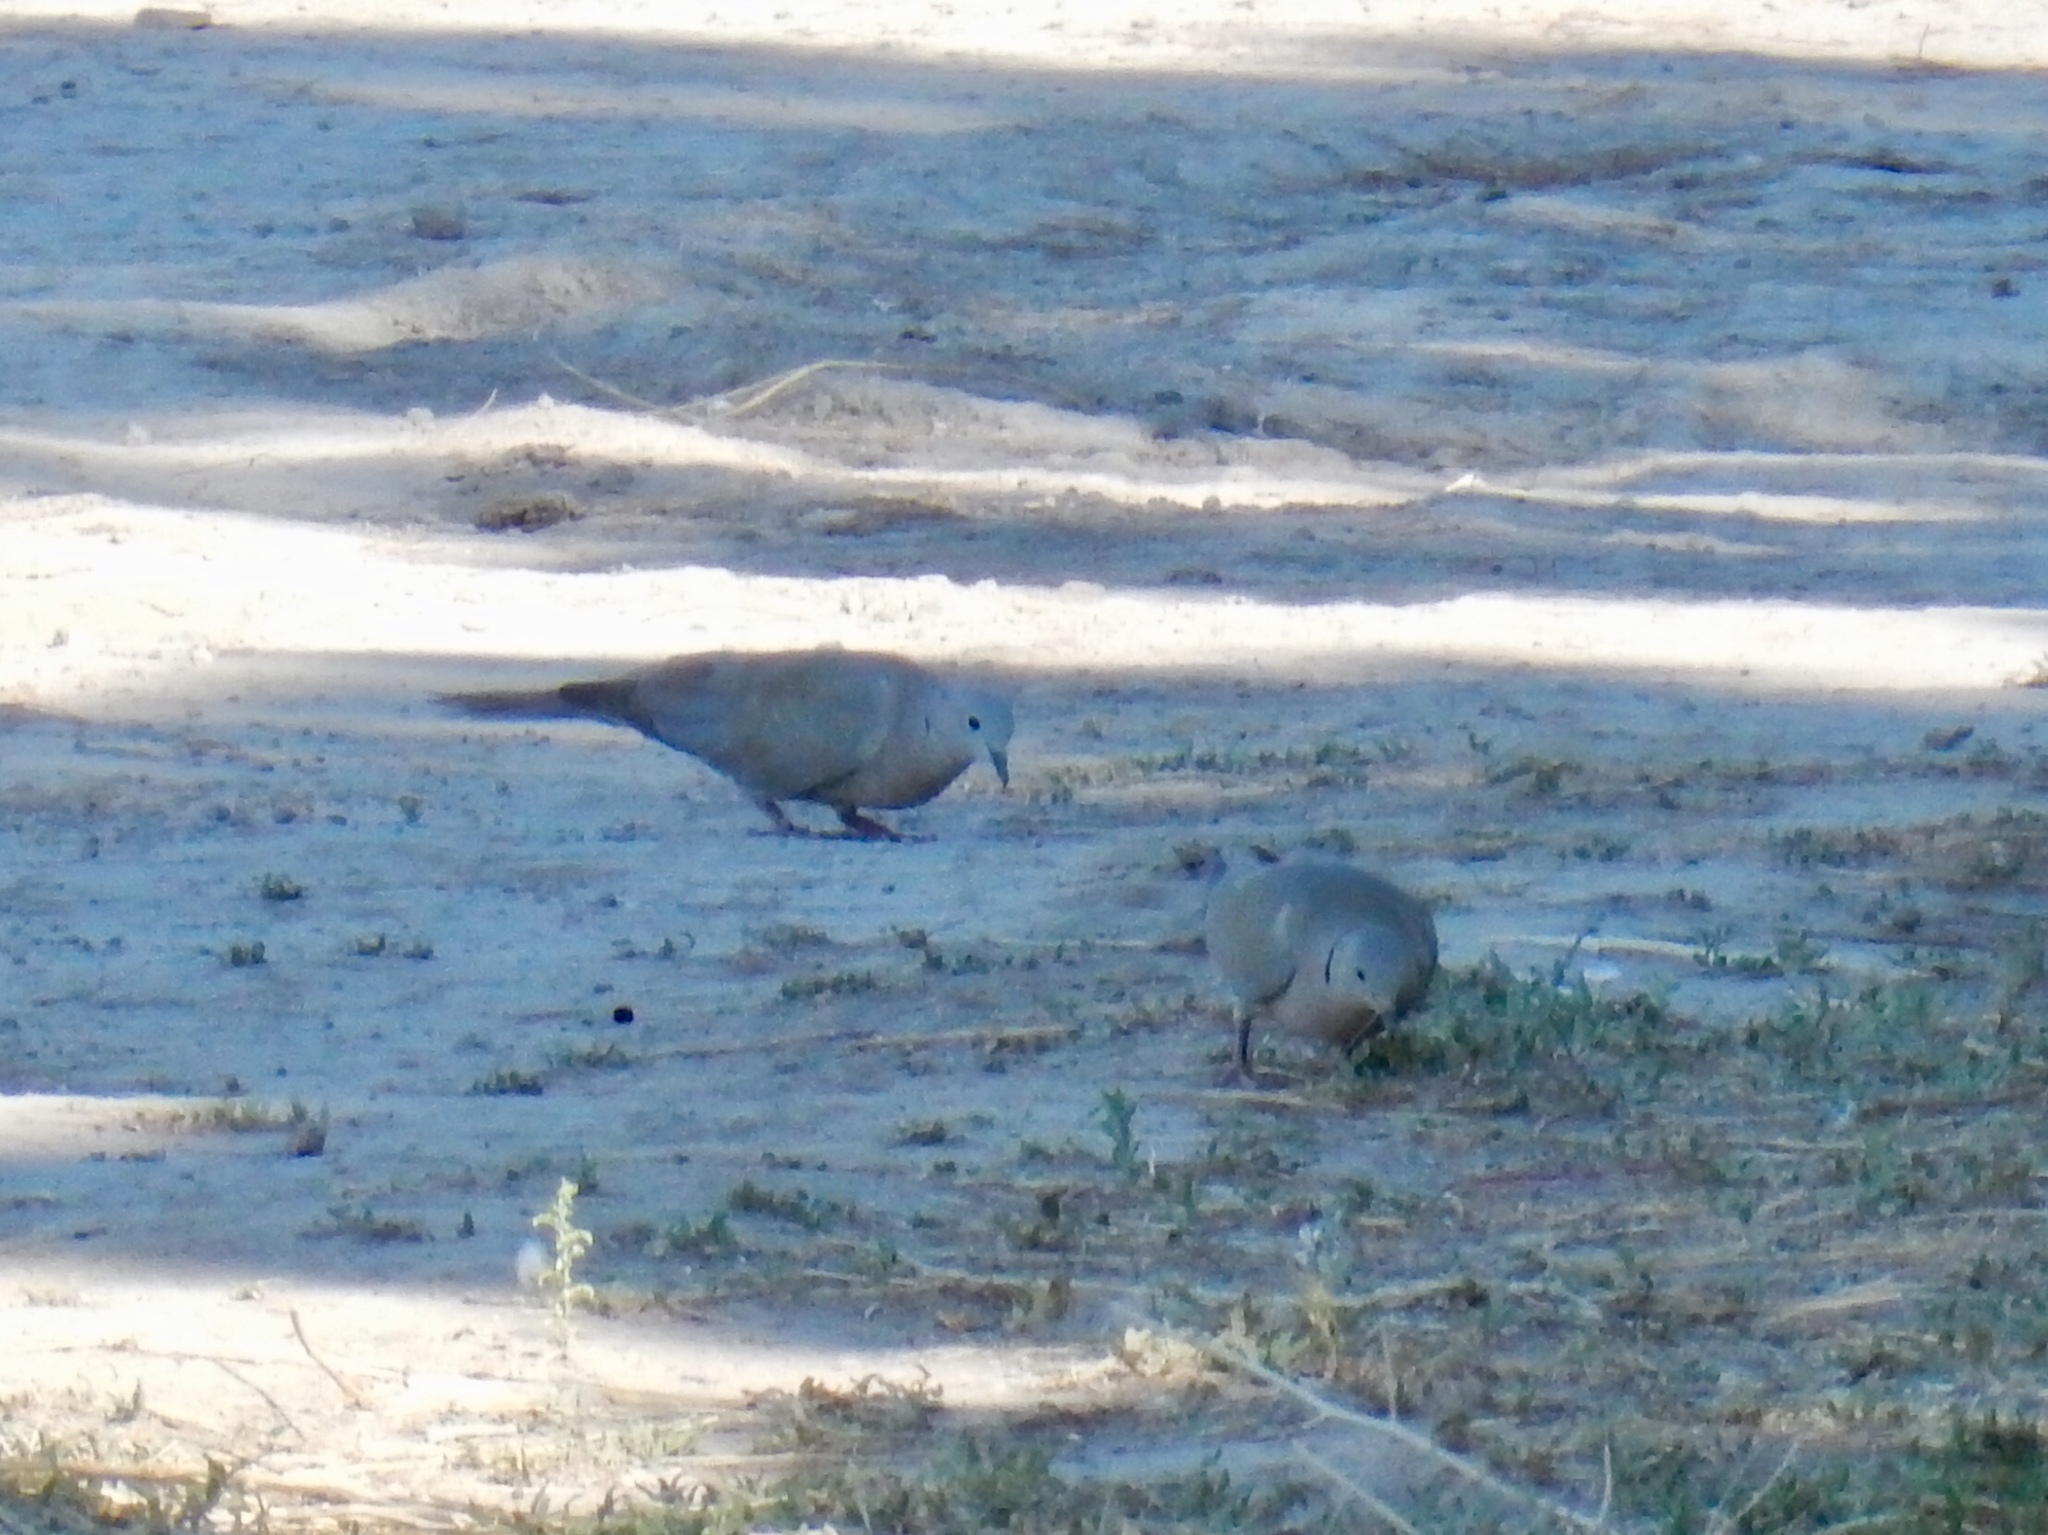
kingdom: Animalia
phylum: Chordata
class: Aves
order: Columbiformes
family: Columbidae
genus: Streptopelia
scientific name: Streptopelia decaocto
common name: Eurasian collared dove
